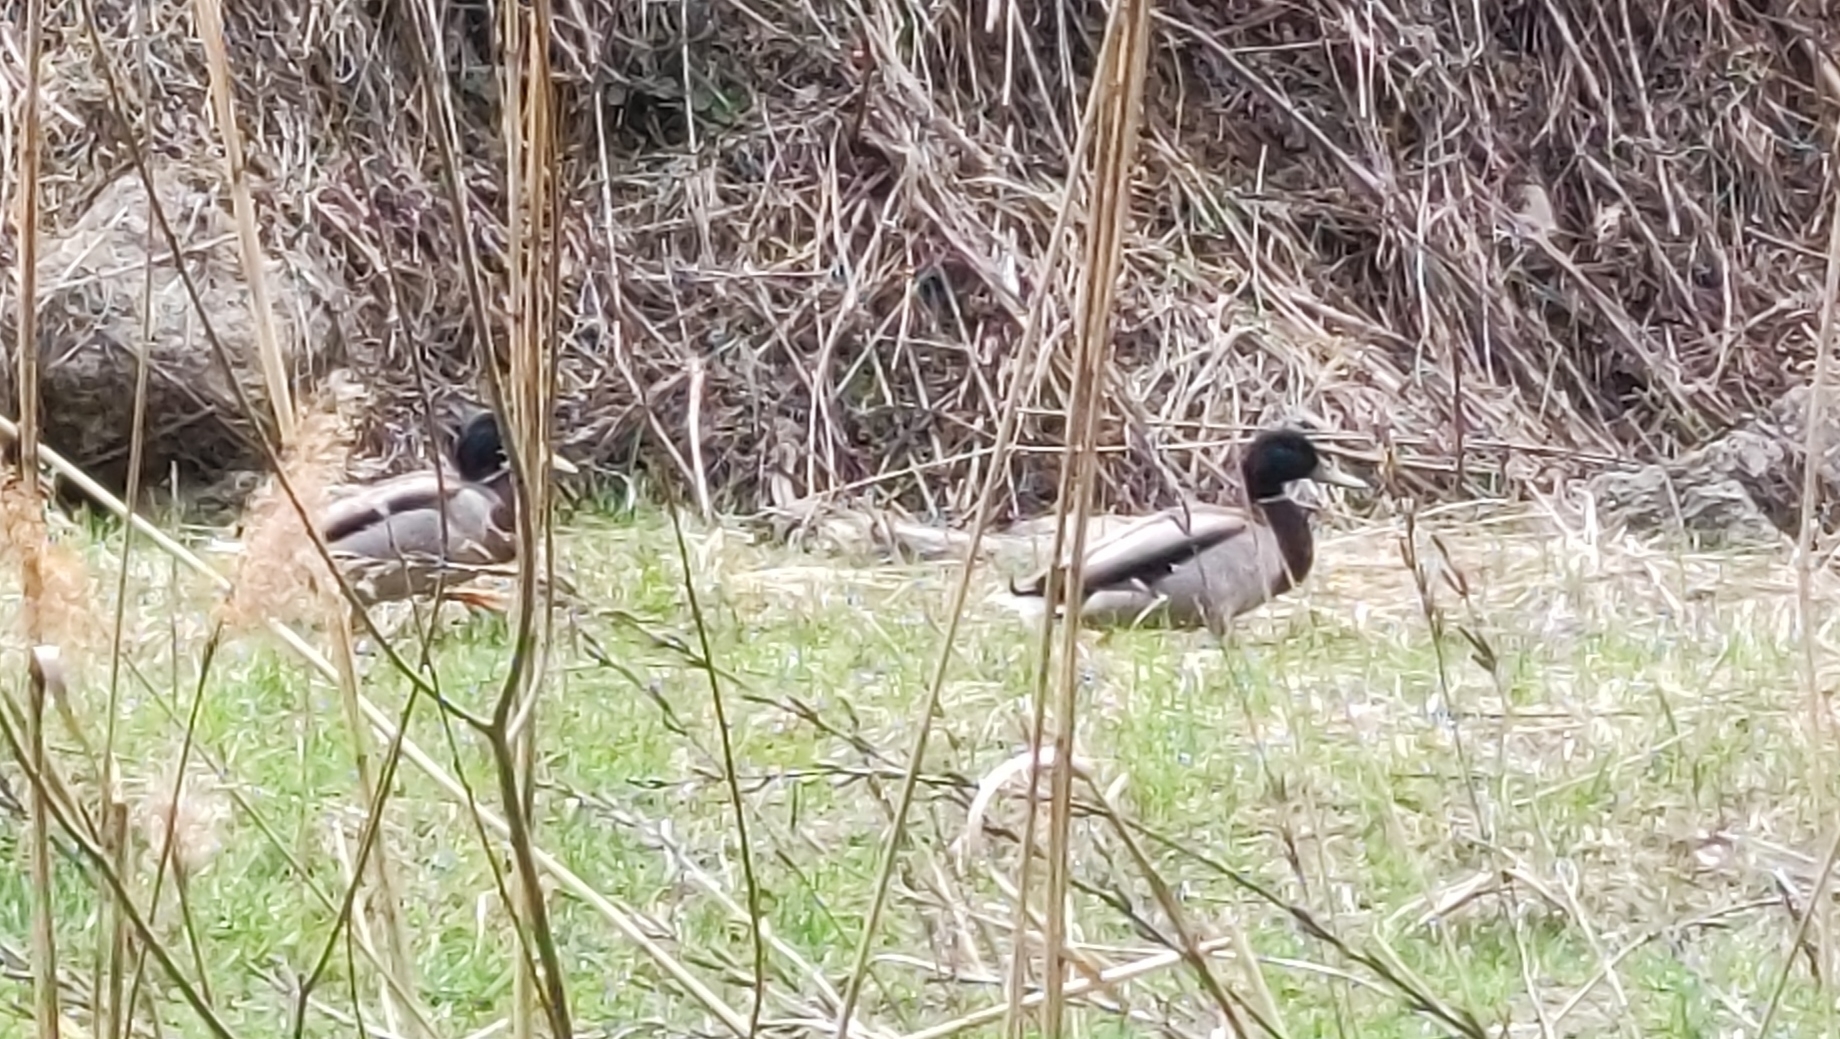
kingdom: Animalia
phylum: Chordata
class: Aves
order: Anseriformes
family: Anatidae
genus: Anas
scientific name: Anas platyrhynchos
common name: Mallard
